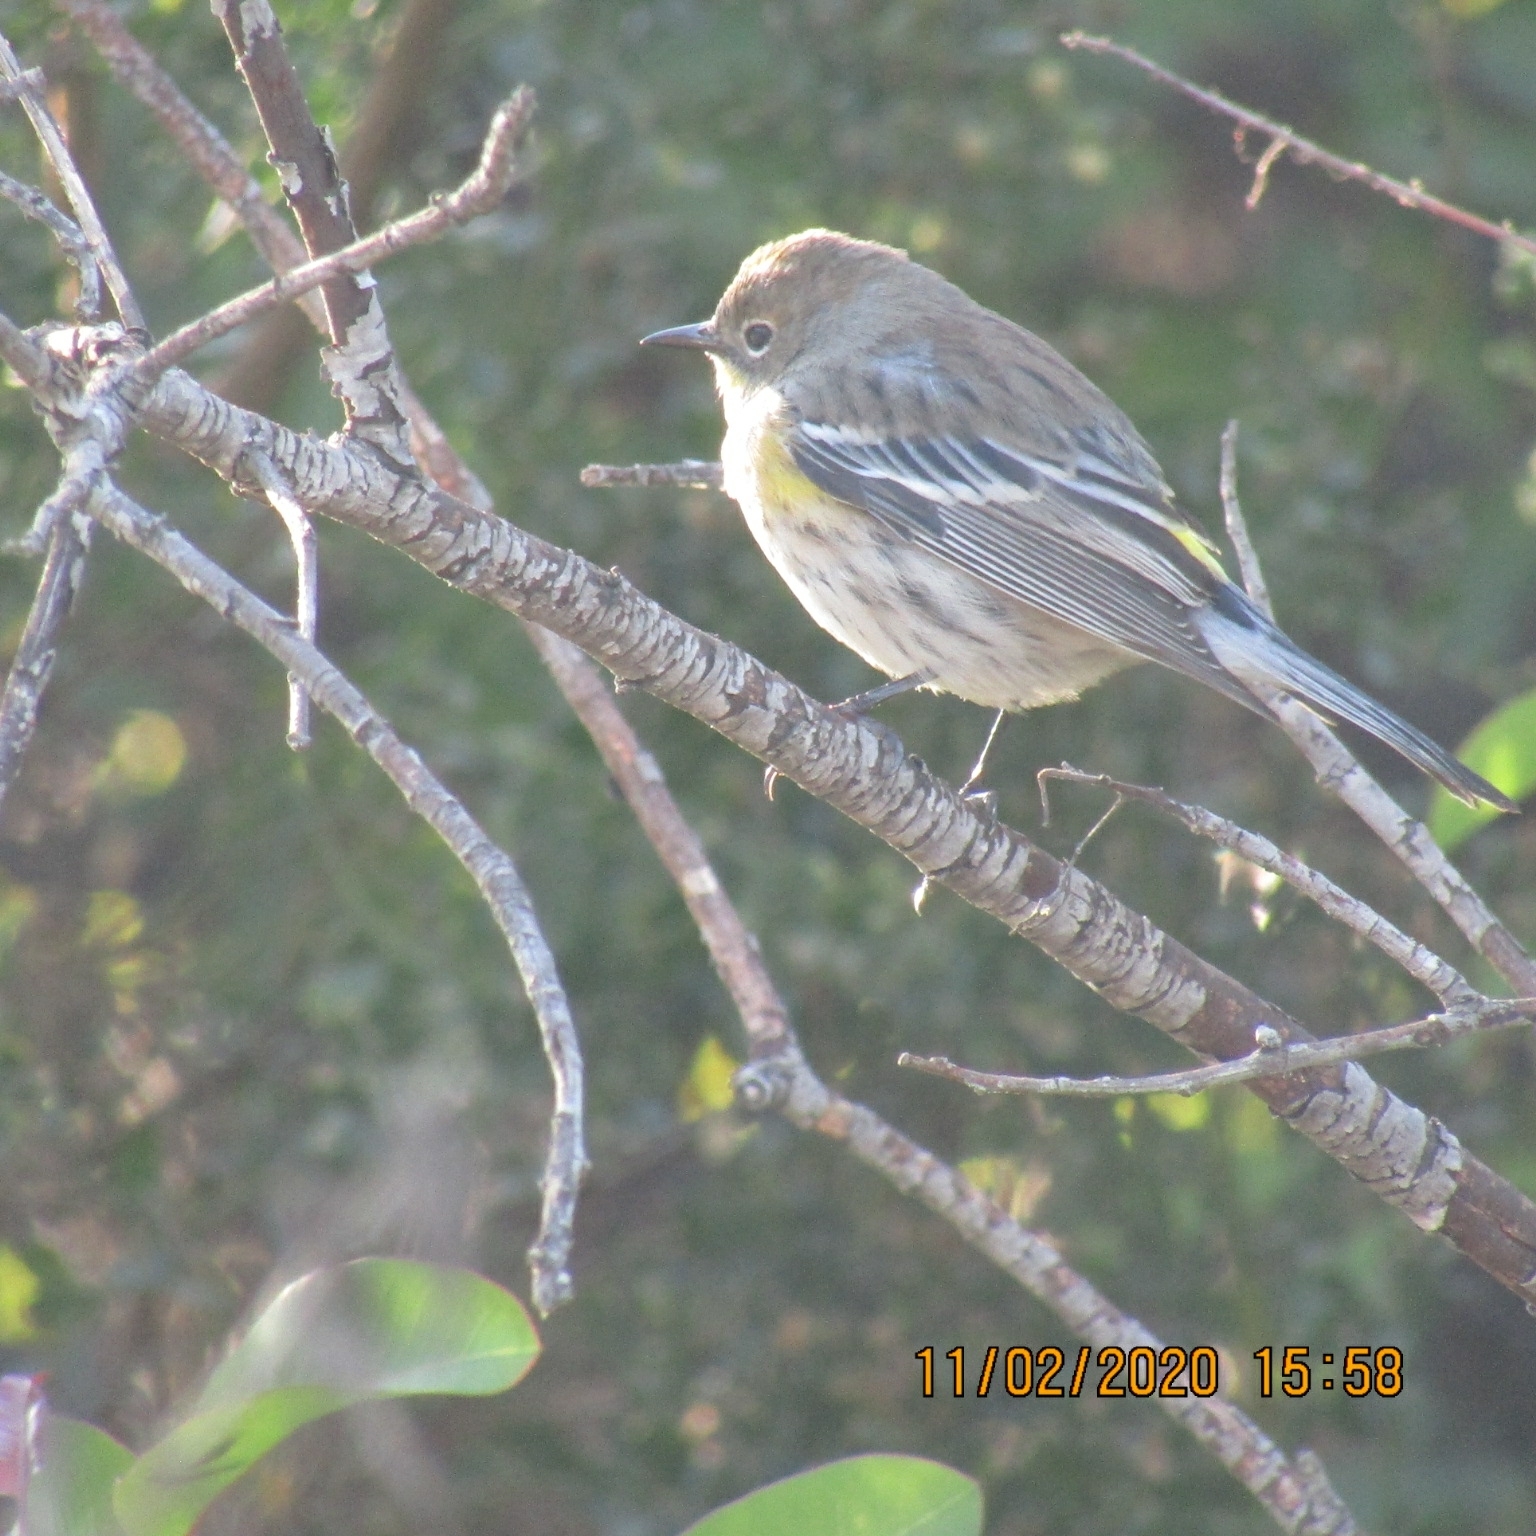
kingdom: Animalia
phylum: Chordata
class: Aves
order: Passeriformes
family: Parulidae
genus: Setophaga
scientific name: Setophaga coronata
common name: Myrtle warbler
